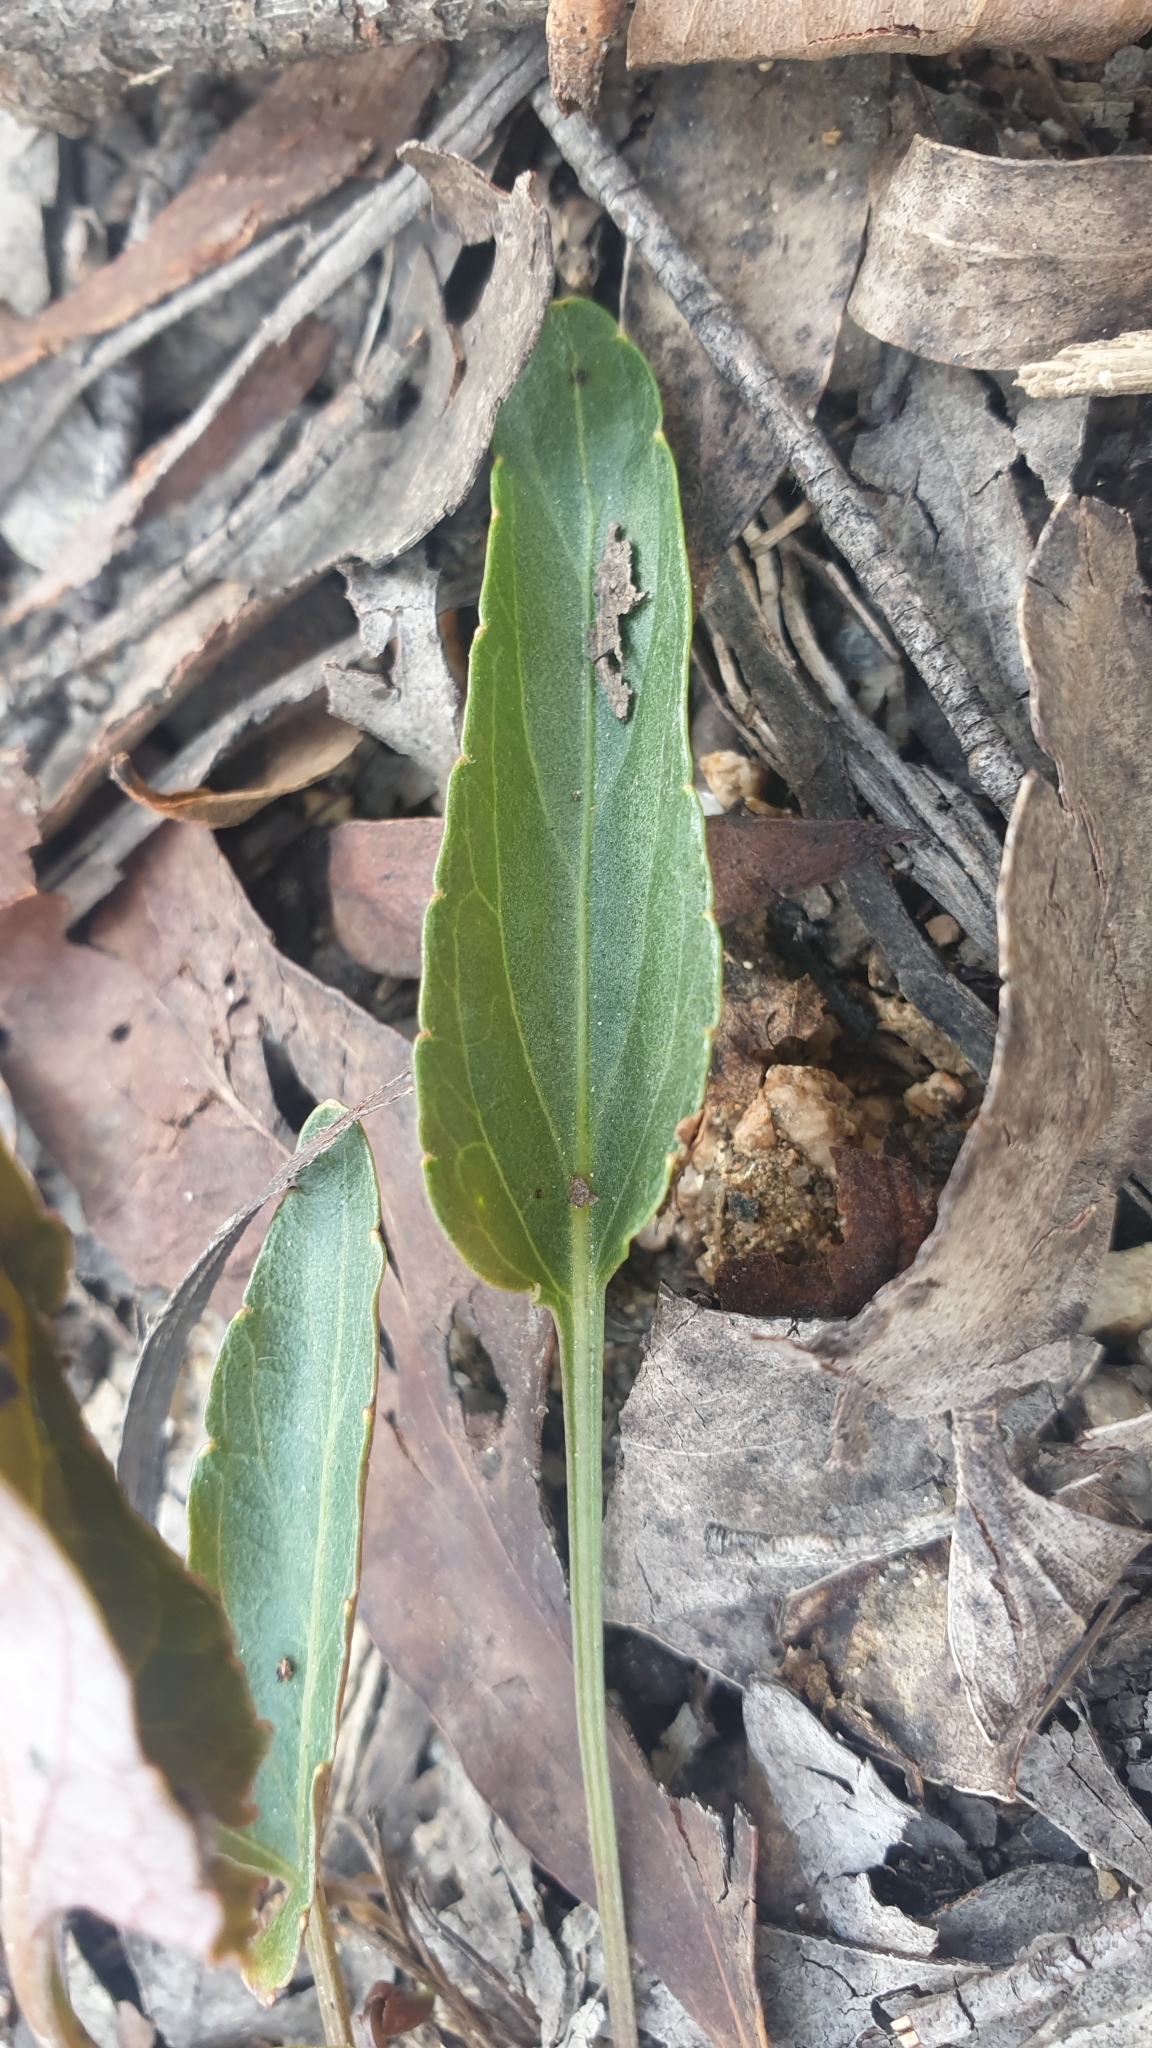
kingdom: Plantae
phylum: Tracheophyta
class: Magnoliopsida
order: Malpighiales
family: Violaceae
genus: Viola
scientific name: Viola betonicifolia
